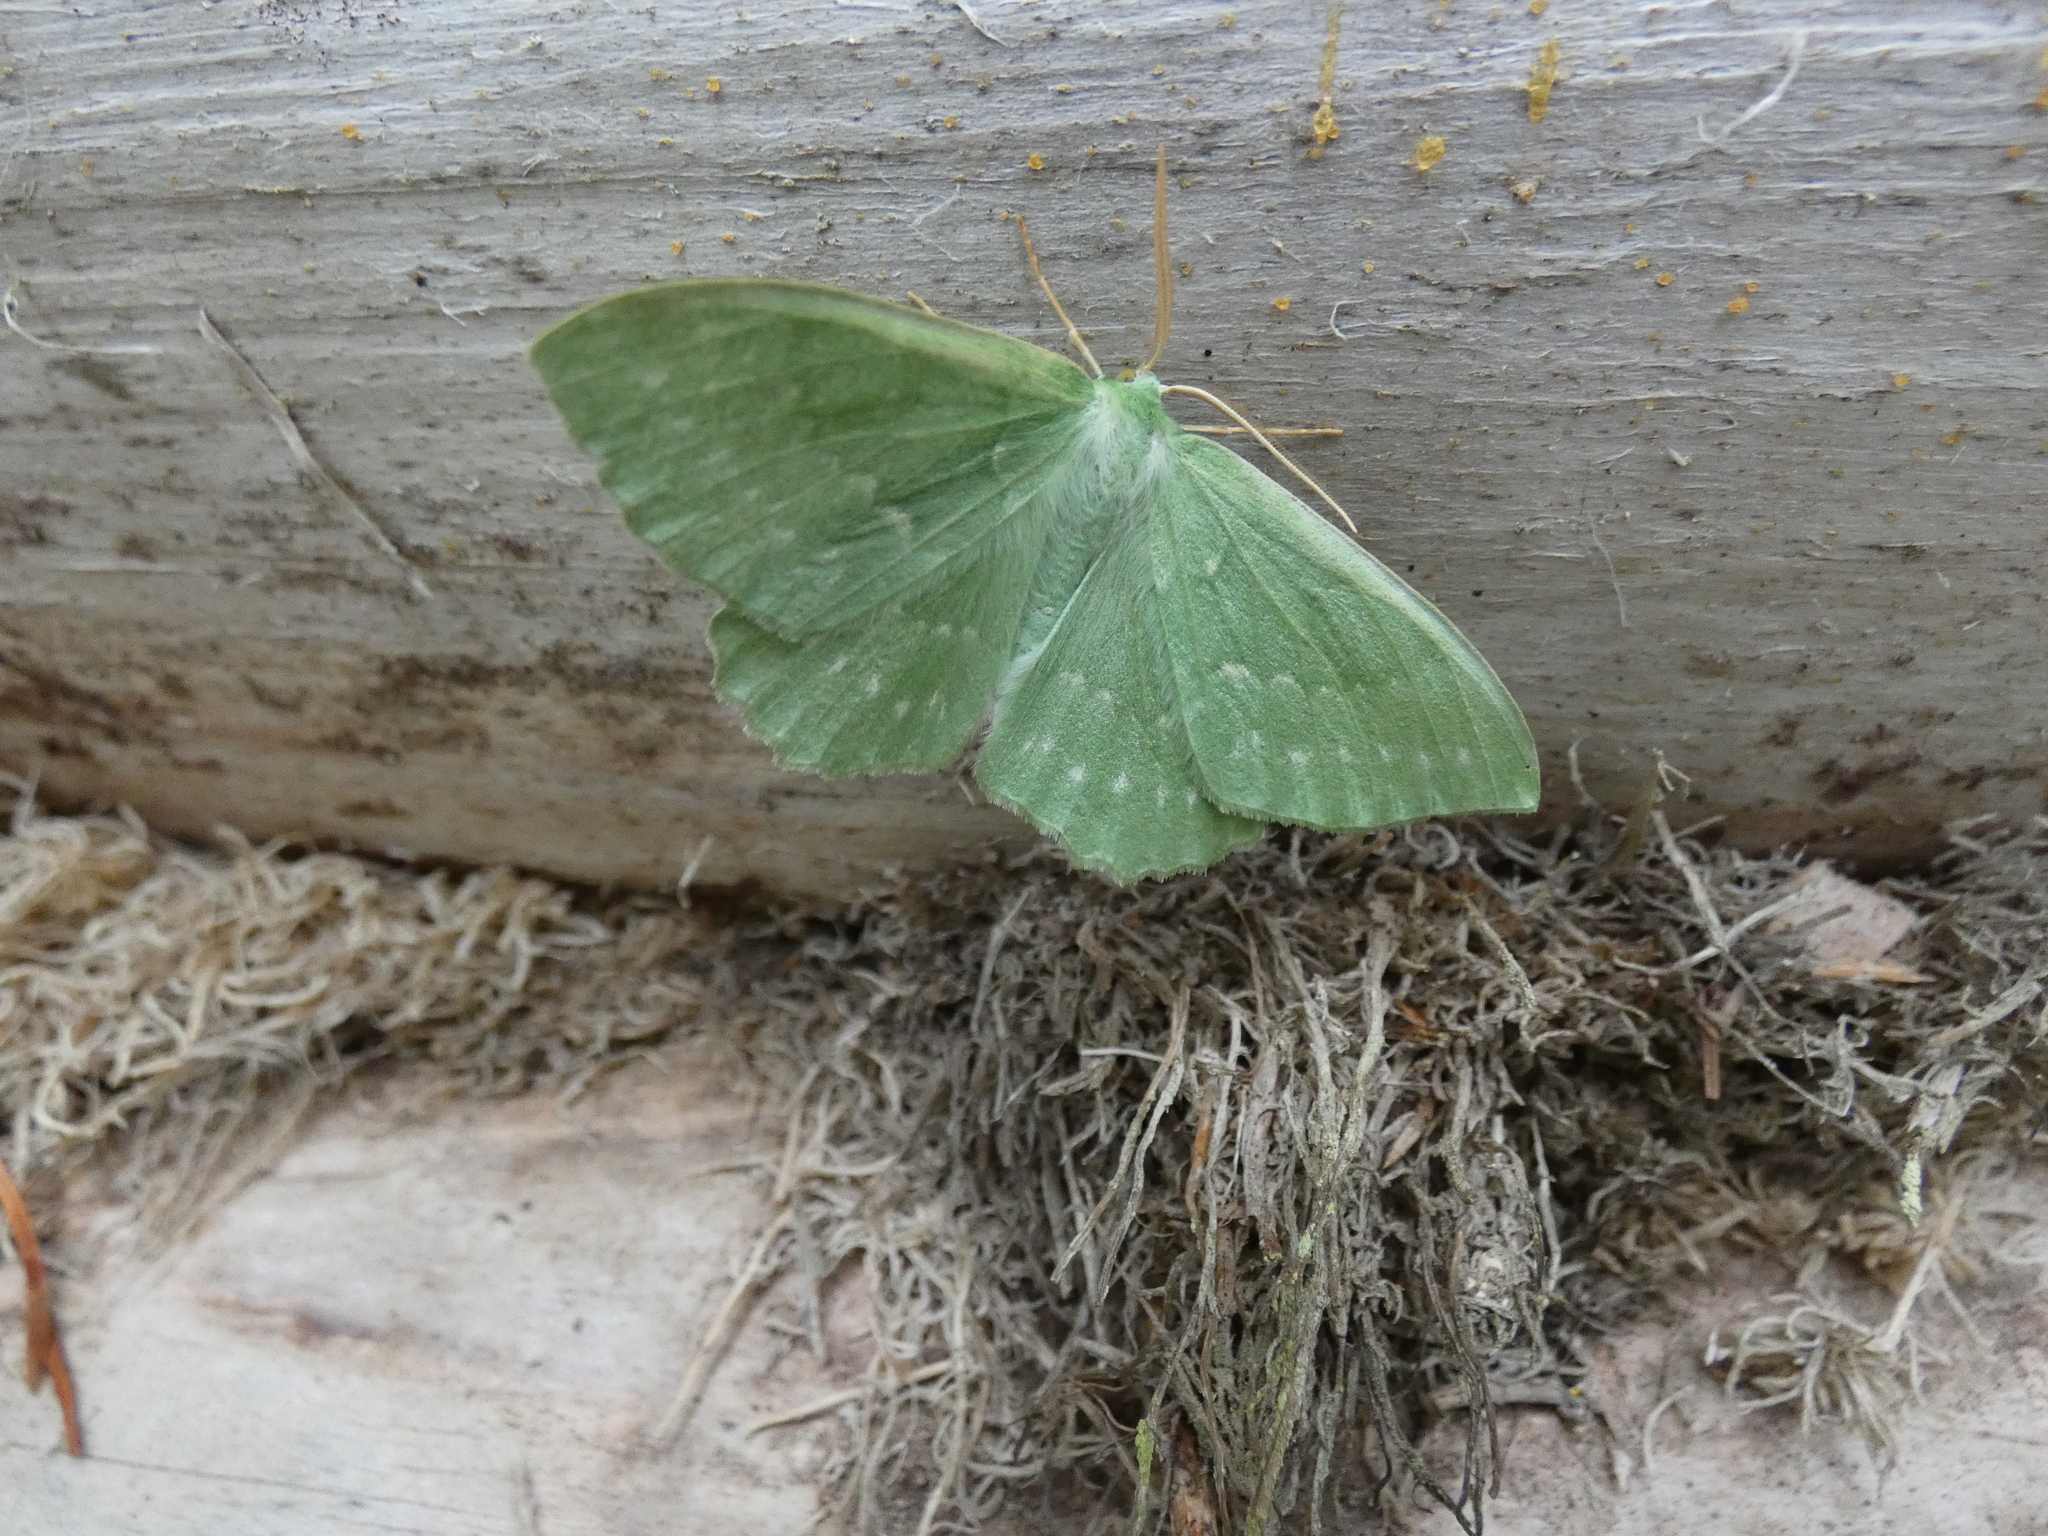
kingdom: Animalia
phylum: Arthropoda
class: Insecta
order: Lepidoptera
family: Geometridae
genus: Geometra
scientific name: Geometra papilionaria
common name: Large emerald
